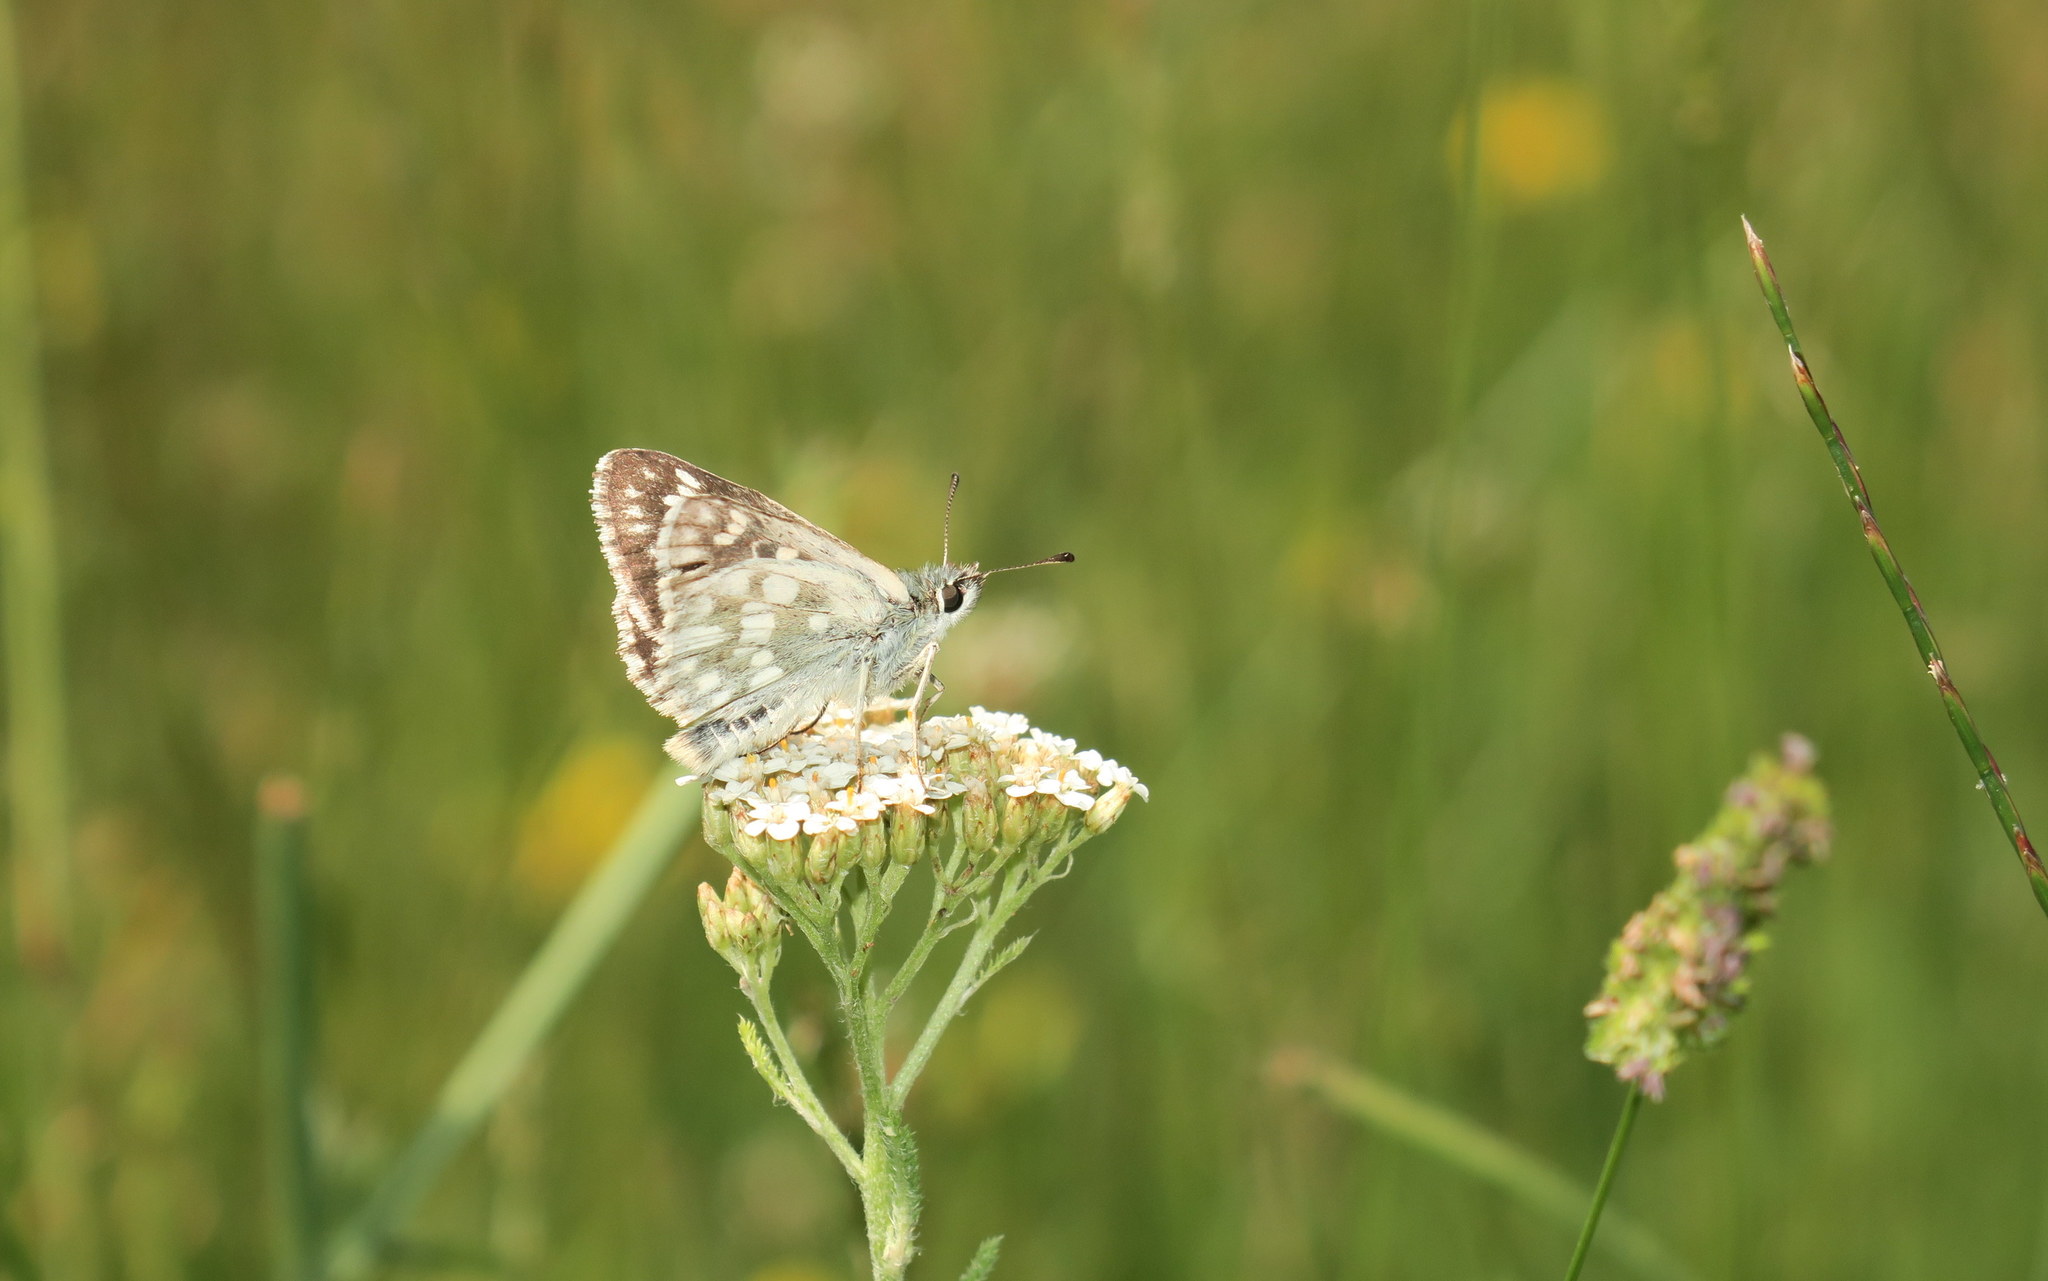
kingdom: Animalia
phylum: Arthropoda
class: Insecta
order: Lepidoptera
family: Hesperiidae
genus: Syrichtus
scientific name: Syrichtus tessellum
